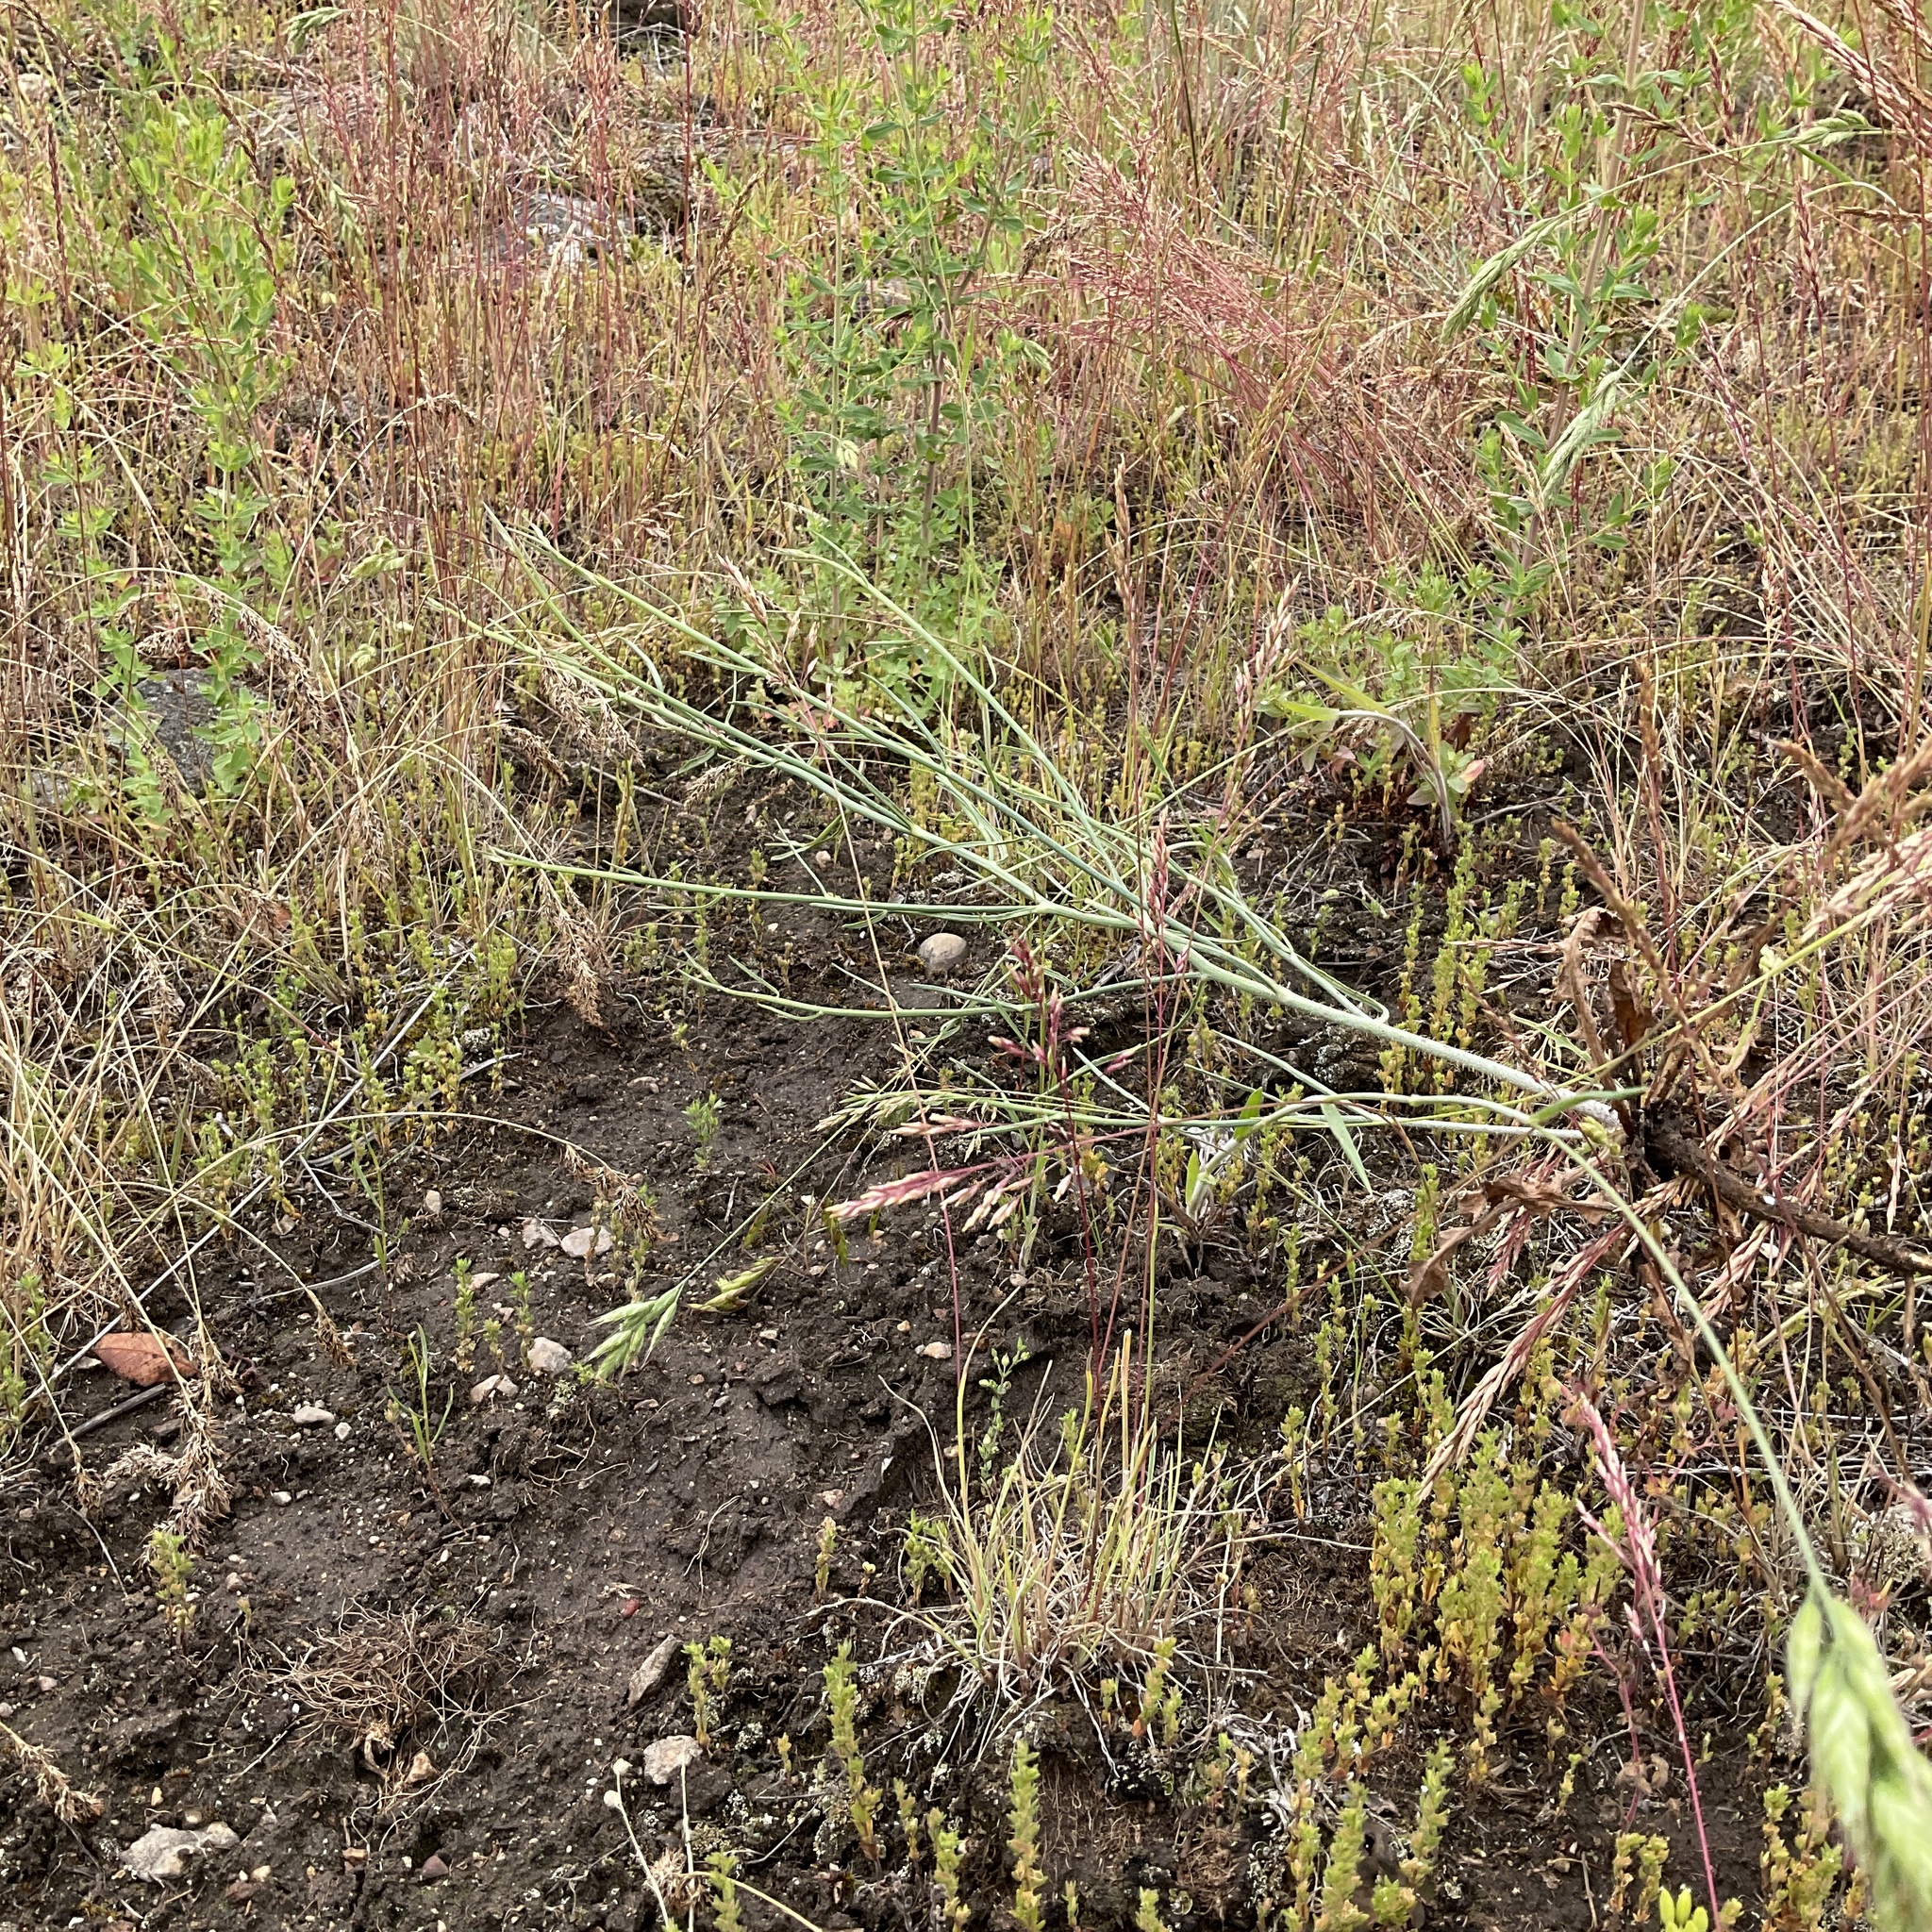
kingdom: Plantae
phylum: Tracheophyta
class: Magnoliopsida
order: Asterales
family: Asteraceae
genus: Chondrilla
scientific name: Chondrilla juncea
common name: Skeleton weed
